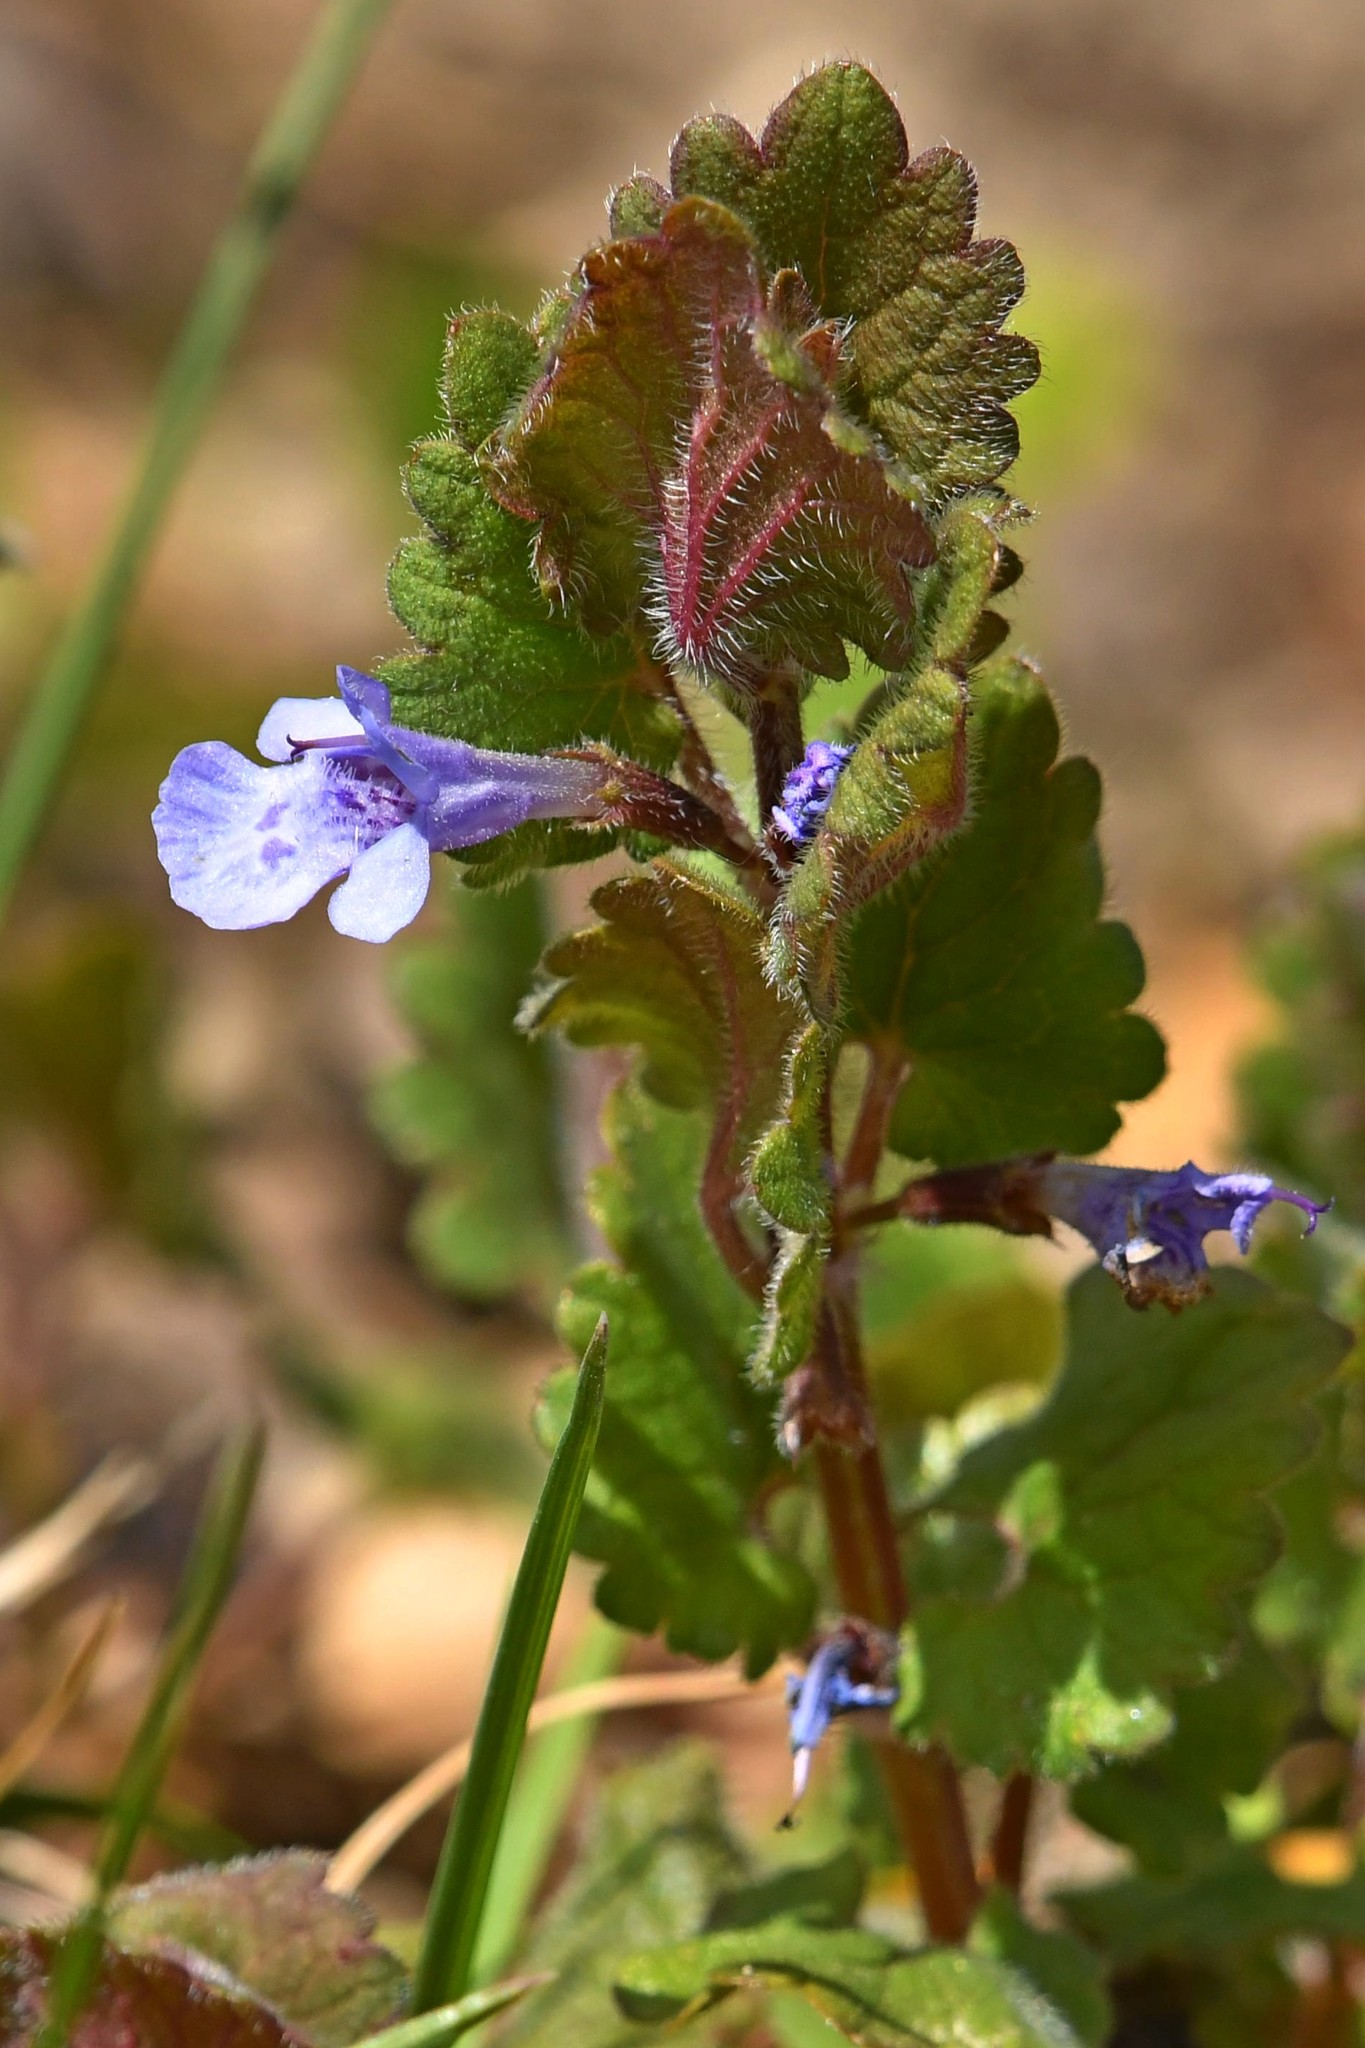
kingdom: Plantae
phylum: Tracheophyta
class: Magnoliopsida
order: Lamiales
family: Lamiaceae
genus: Glechoma
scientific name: Glechoma hederacea
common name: Ground ivy
